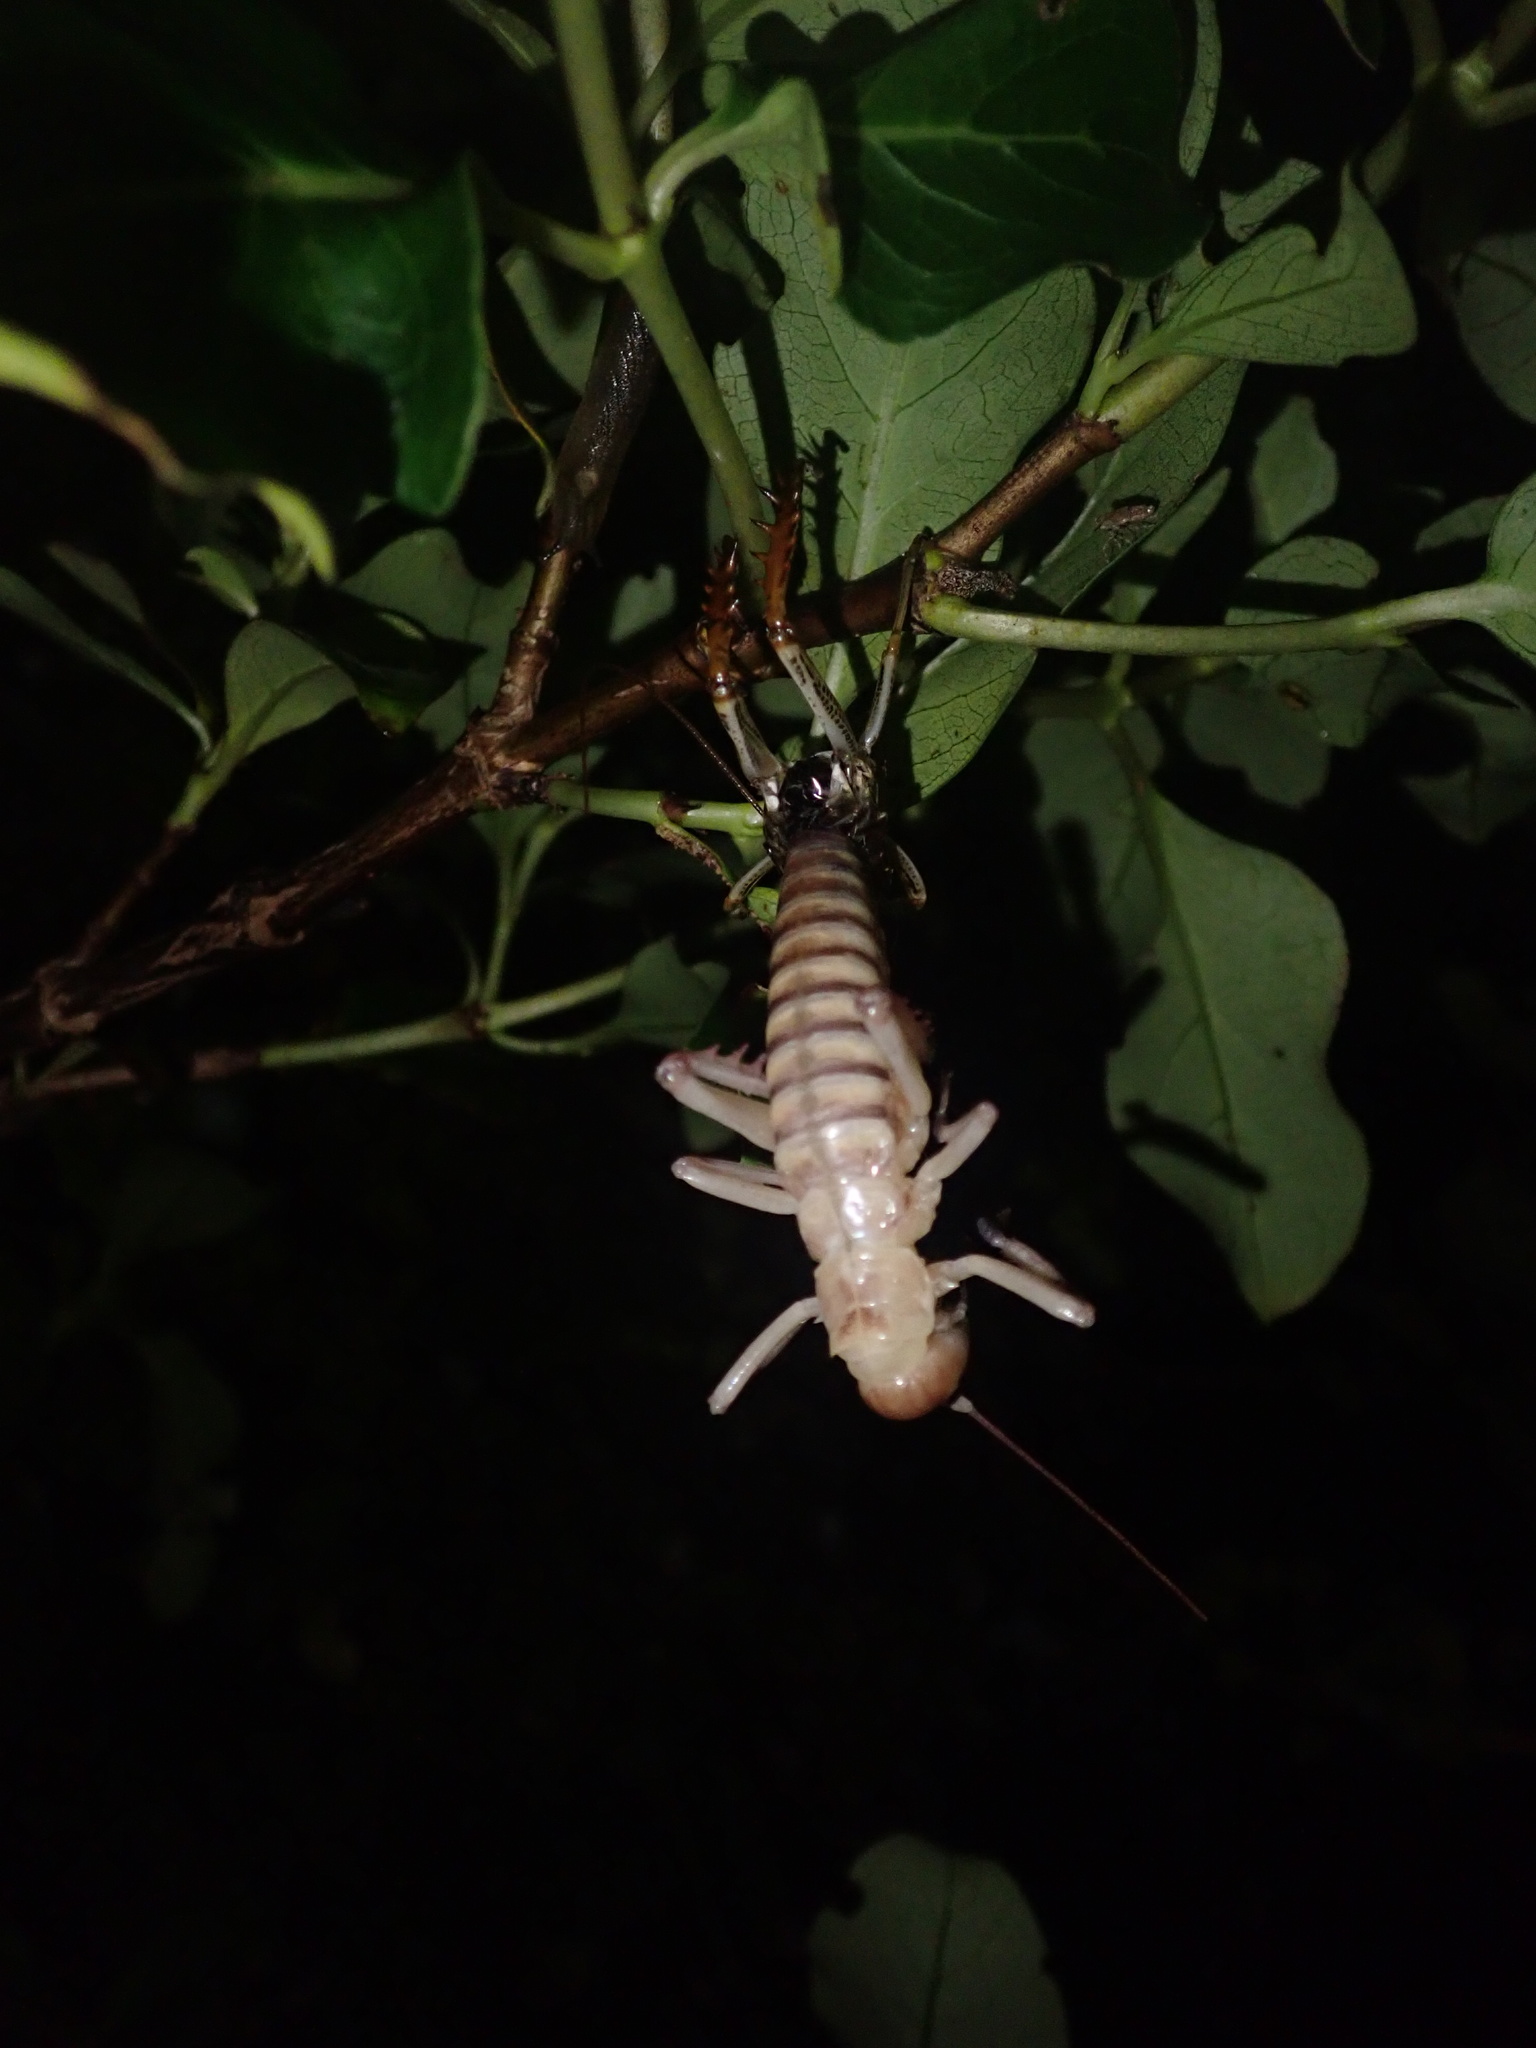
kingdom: Animalia
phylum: Arthropoda
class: Insecta
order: Orthoptera
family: Anostostomatidae
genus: Hemideina
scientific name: Hemideina crassidens
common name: Wellington tree weta
